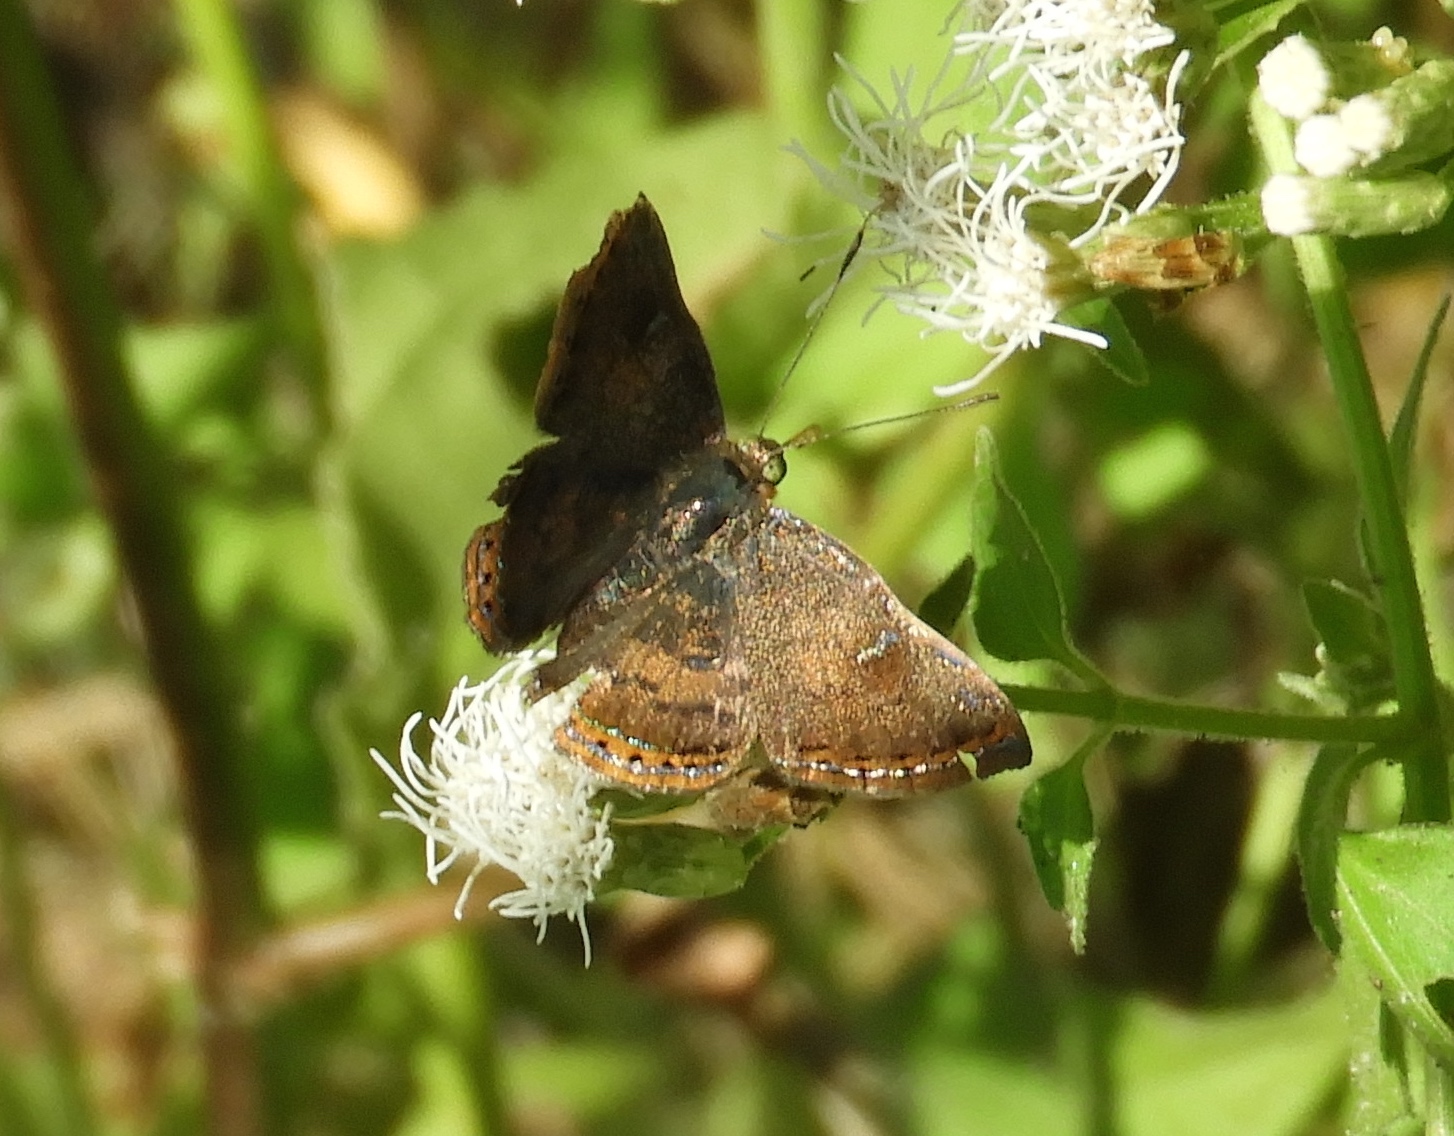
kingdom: Animalia
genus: Caria
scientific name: Caria ino
